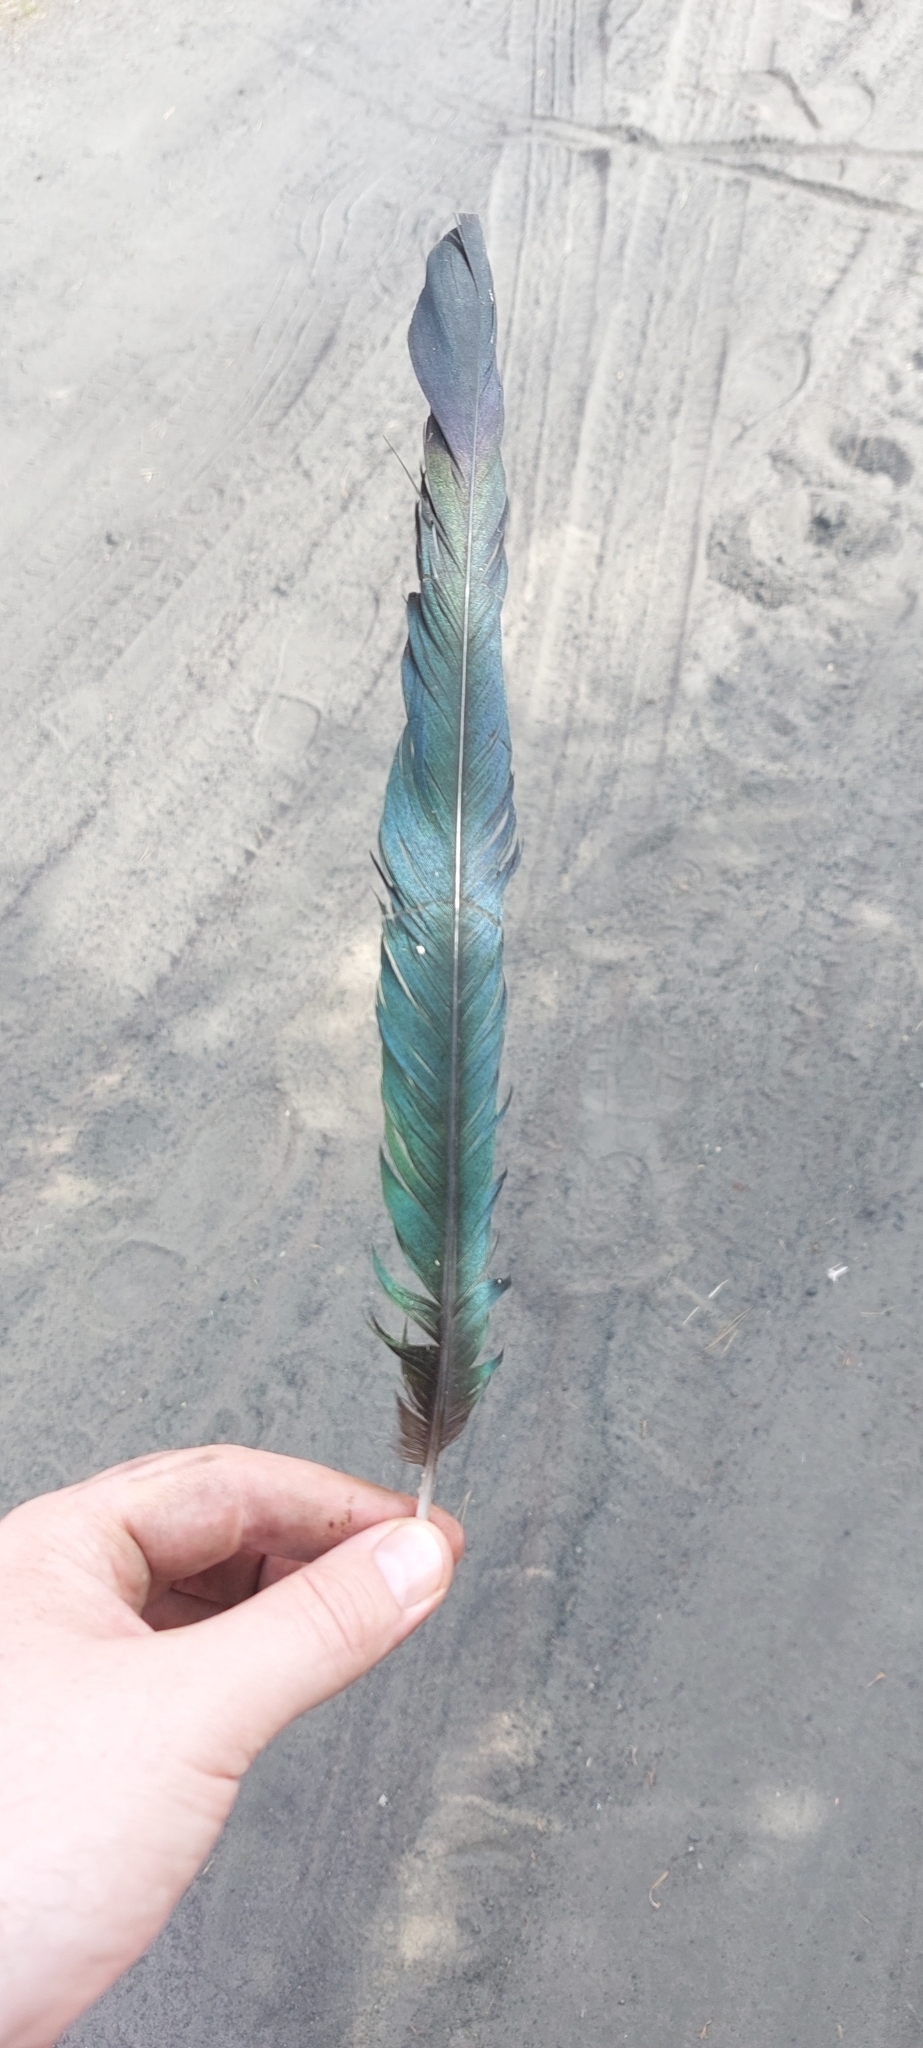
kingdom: Animalia
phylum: Chordata
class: Aves
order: Passeriformes
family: Corvidae
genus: Pica
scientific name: Pica pica
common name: Eurasian magpie
